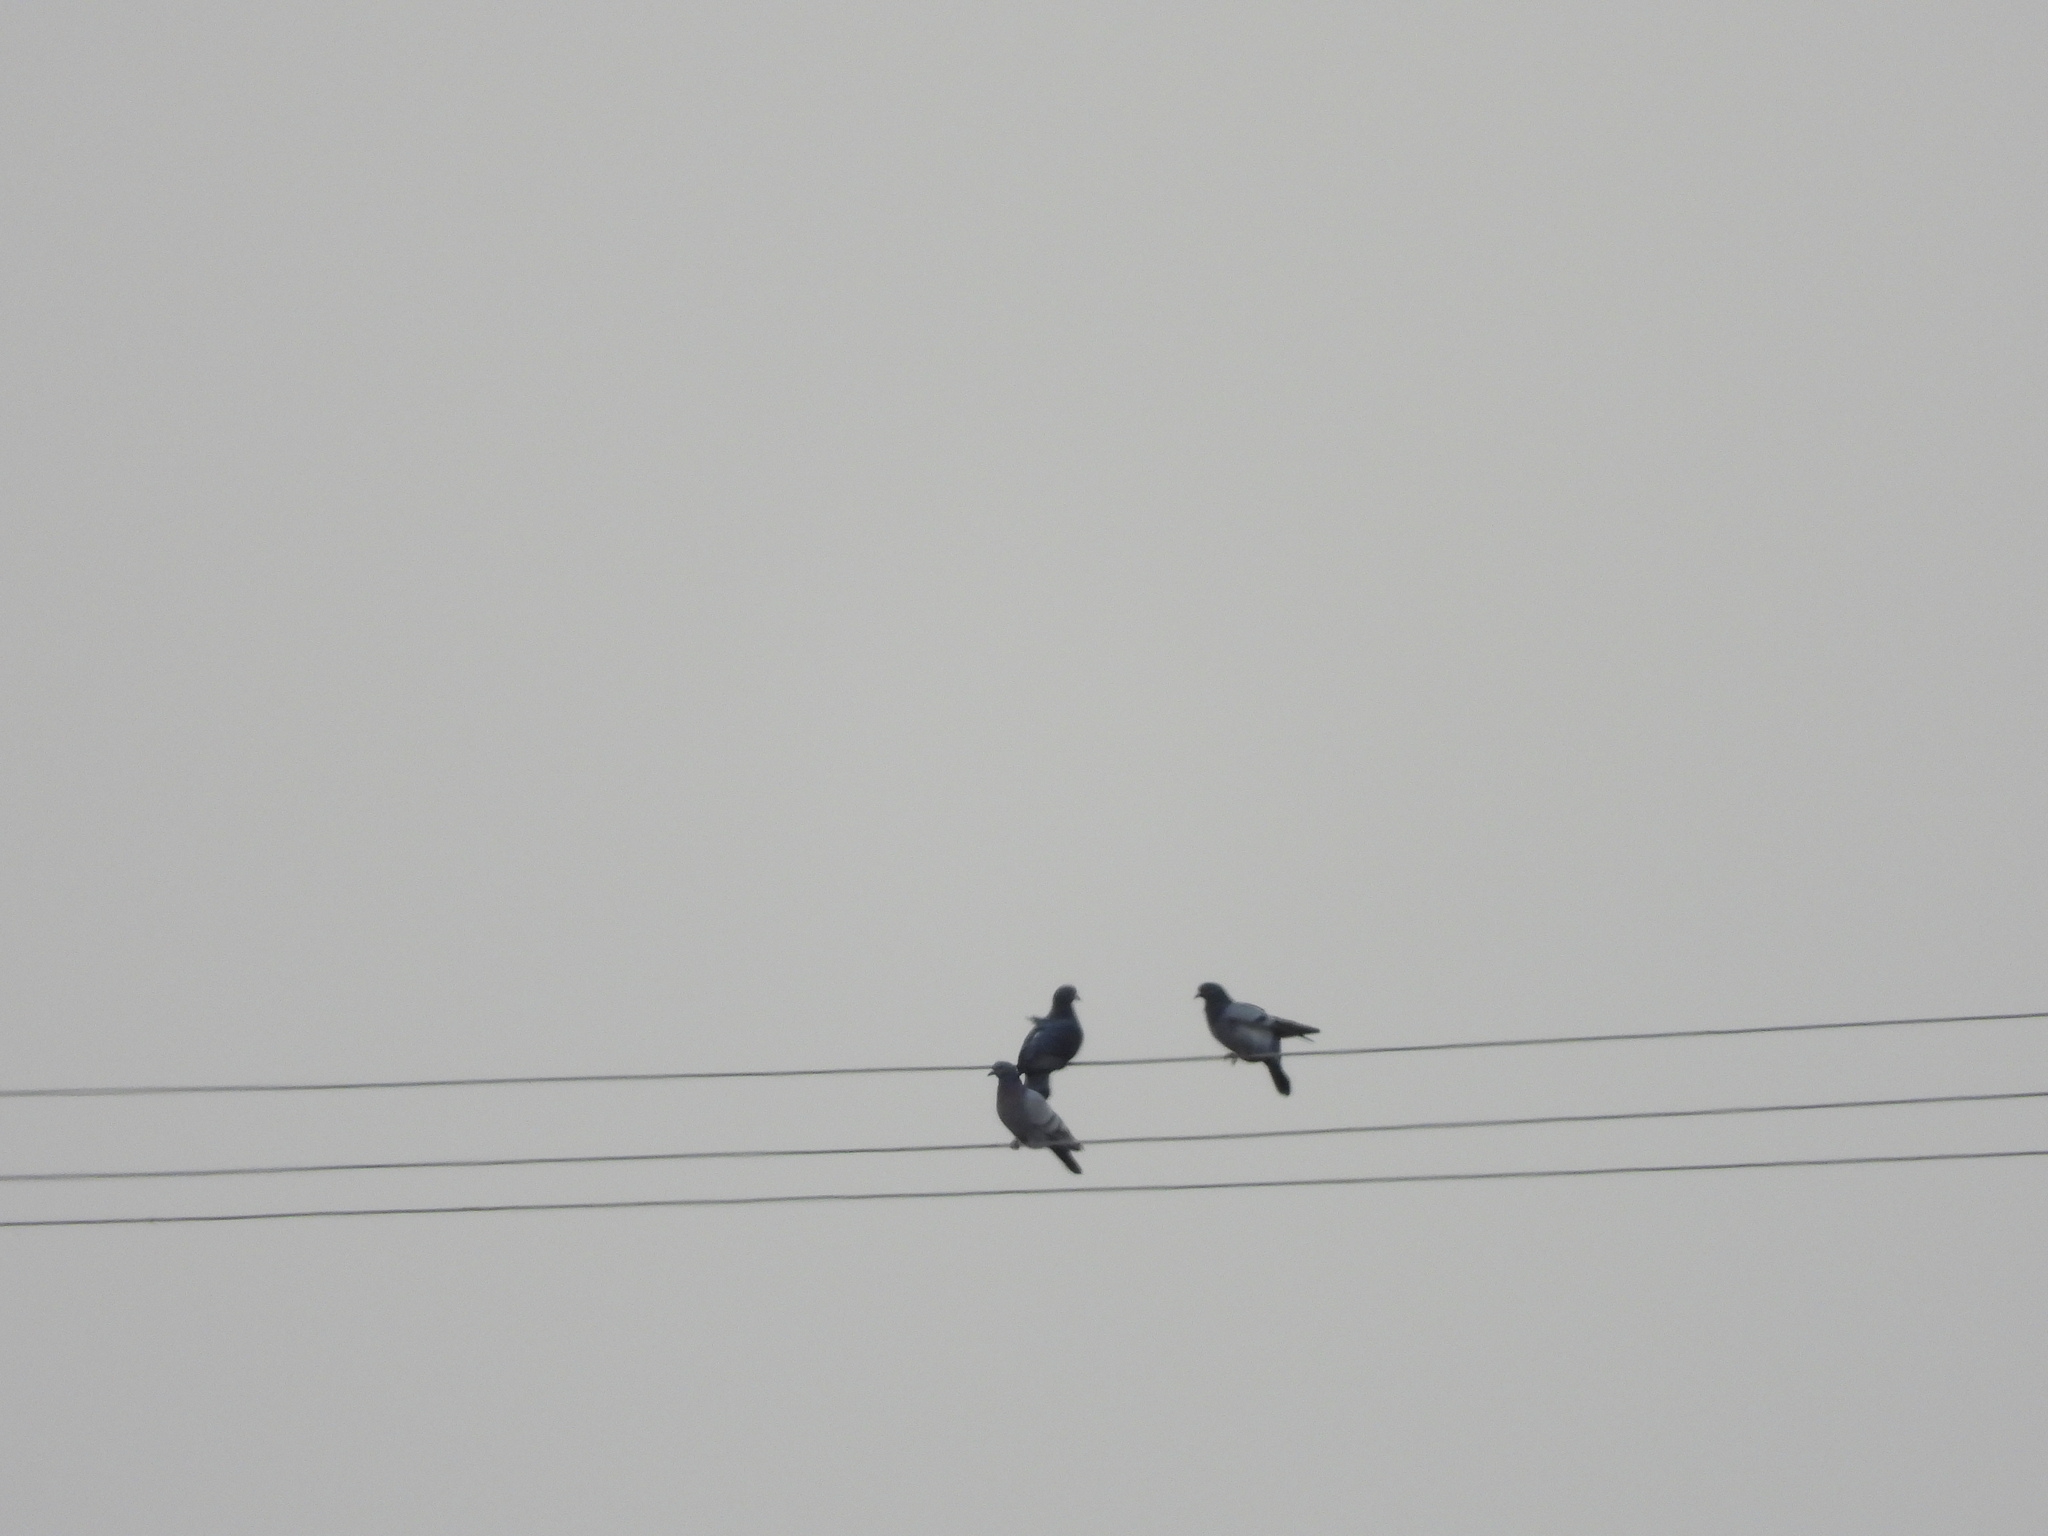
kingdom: Animalia
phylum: Chordata
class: Aves
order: Columbiformes
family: Columbidae
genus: Columba
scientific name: Columba livia
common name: Rock pigeon
